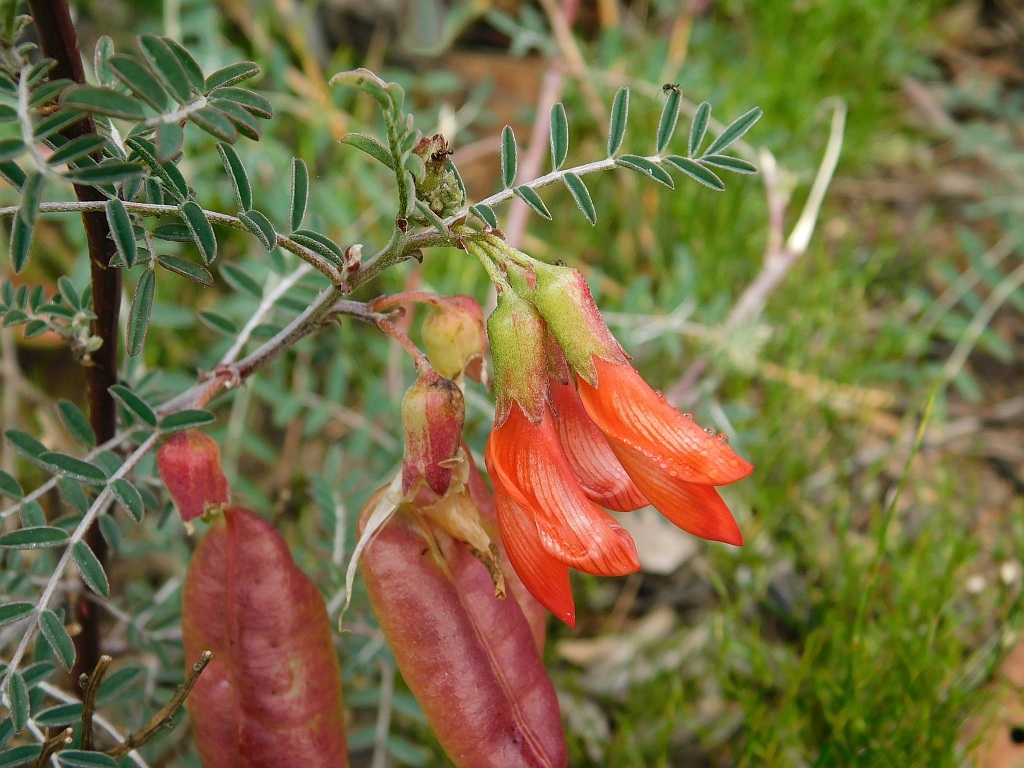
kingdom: Plantae
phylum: Tracheophyta
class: Magnoliopsida
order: Fabales
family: Fabaceae
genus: Lessertia
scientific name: Lessertia frutescens
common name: Balloon-pea
